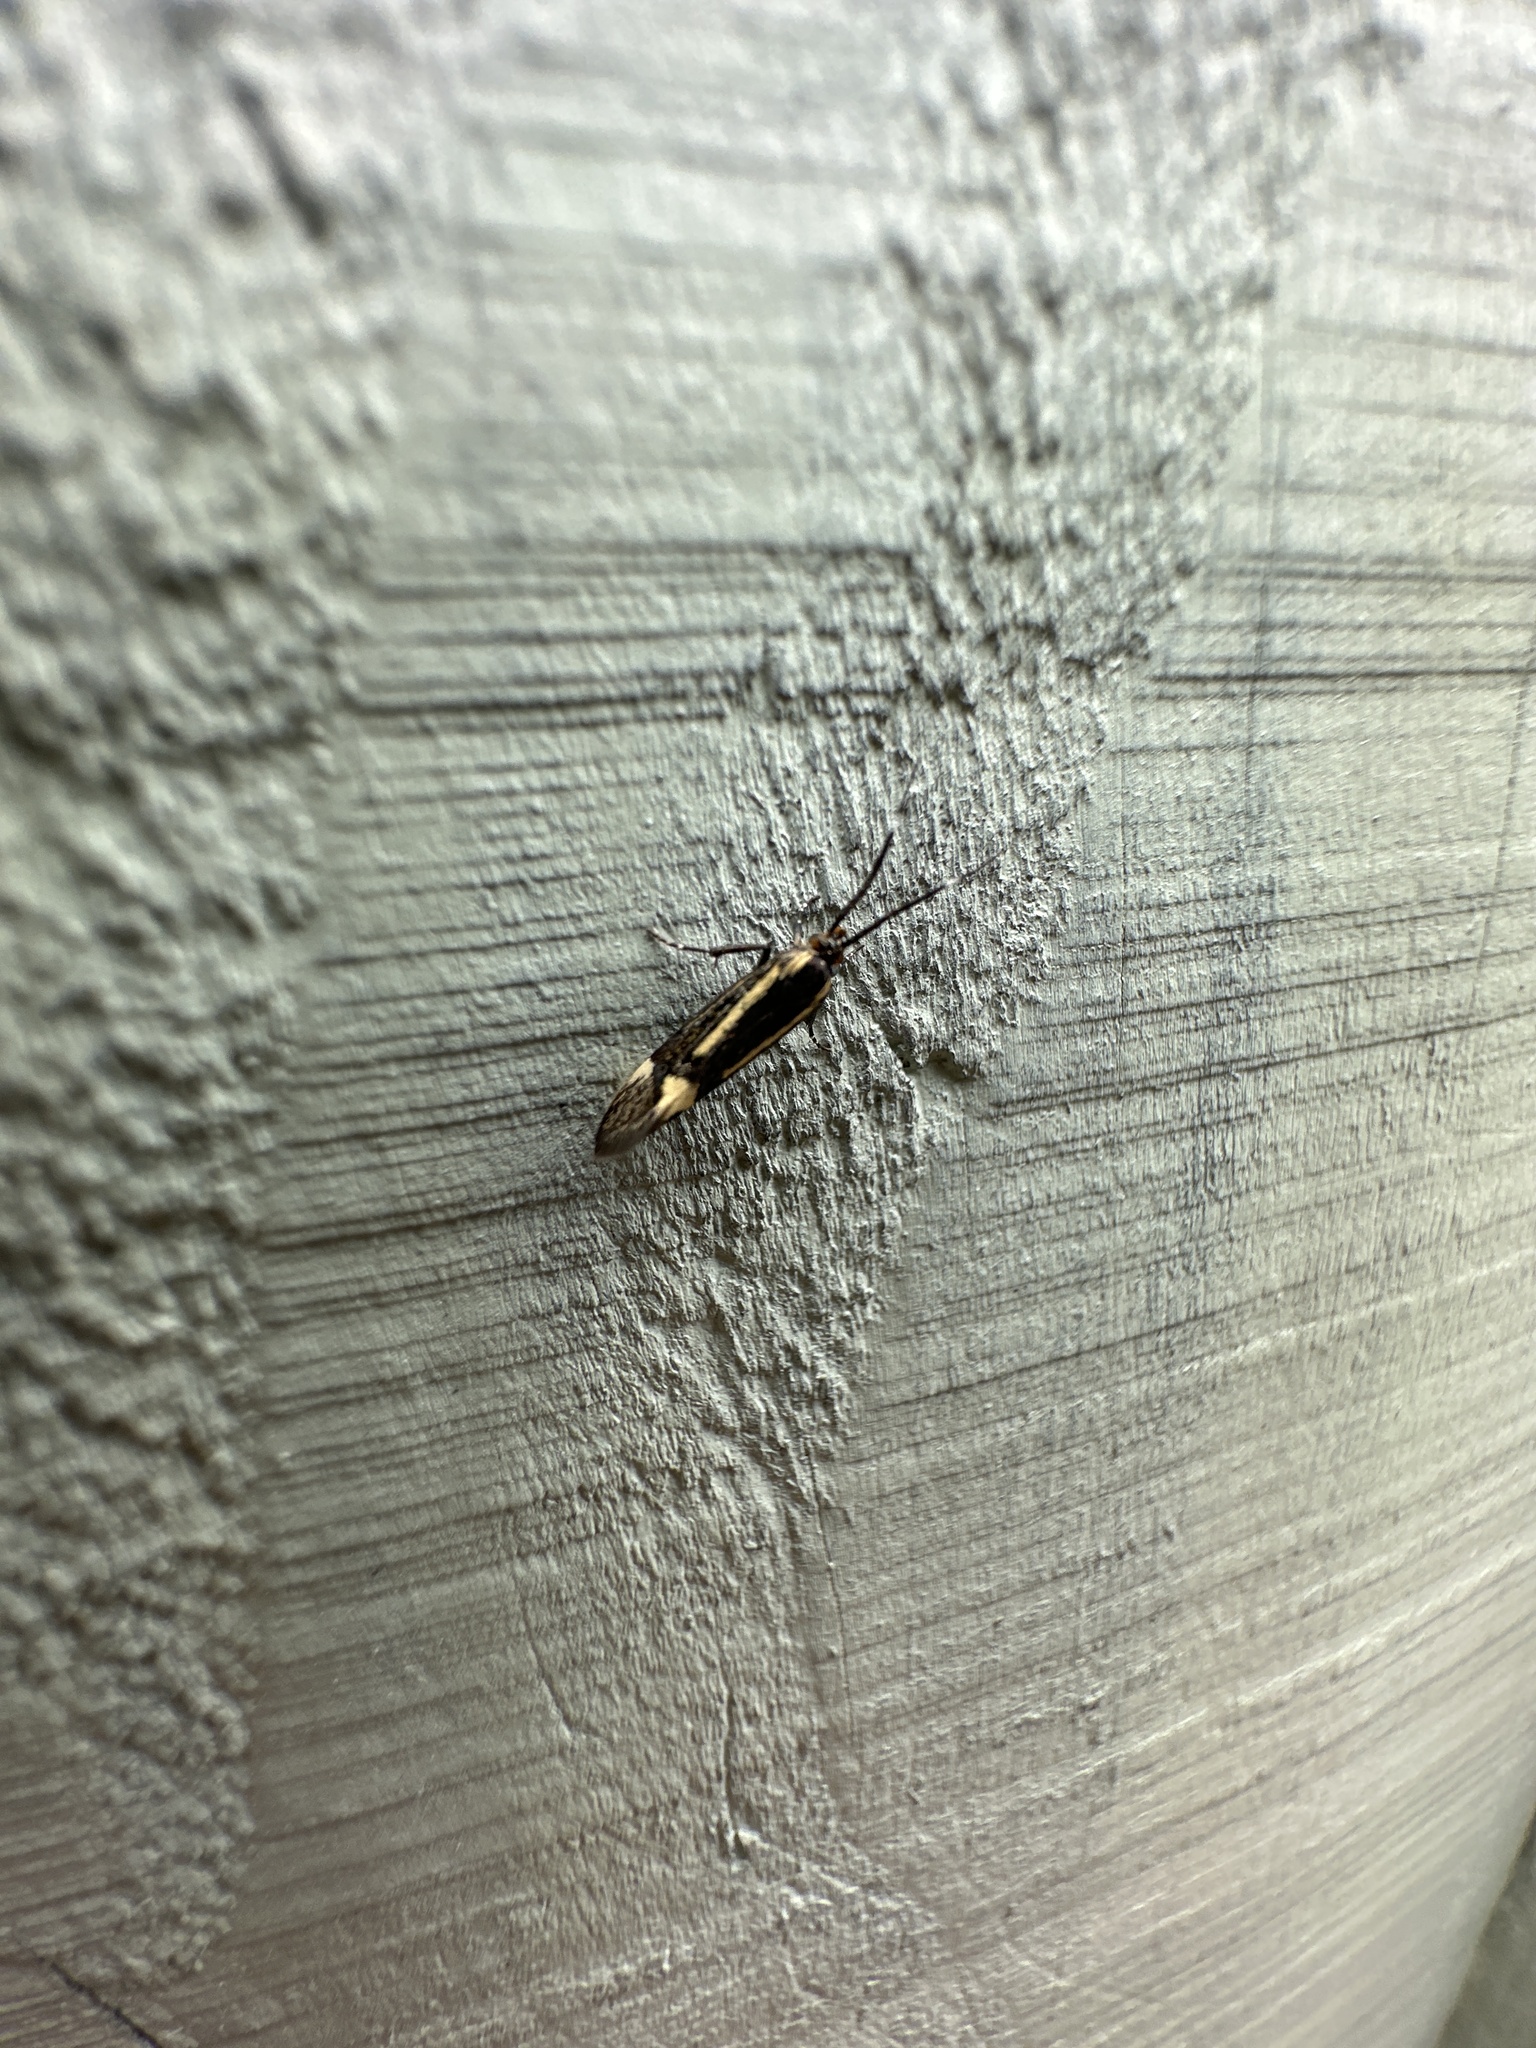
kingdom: Animalia
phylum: Arthropoda
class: Insecta
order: Lepidoptera
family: Oecophoridae
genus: Dafa
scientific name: Dafa Esperia sulphurella
